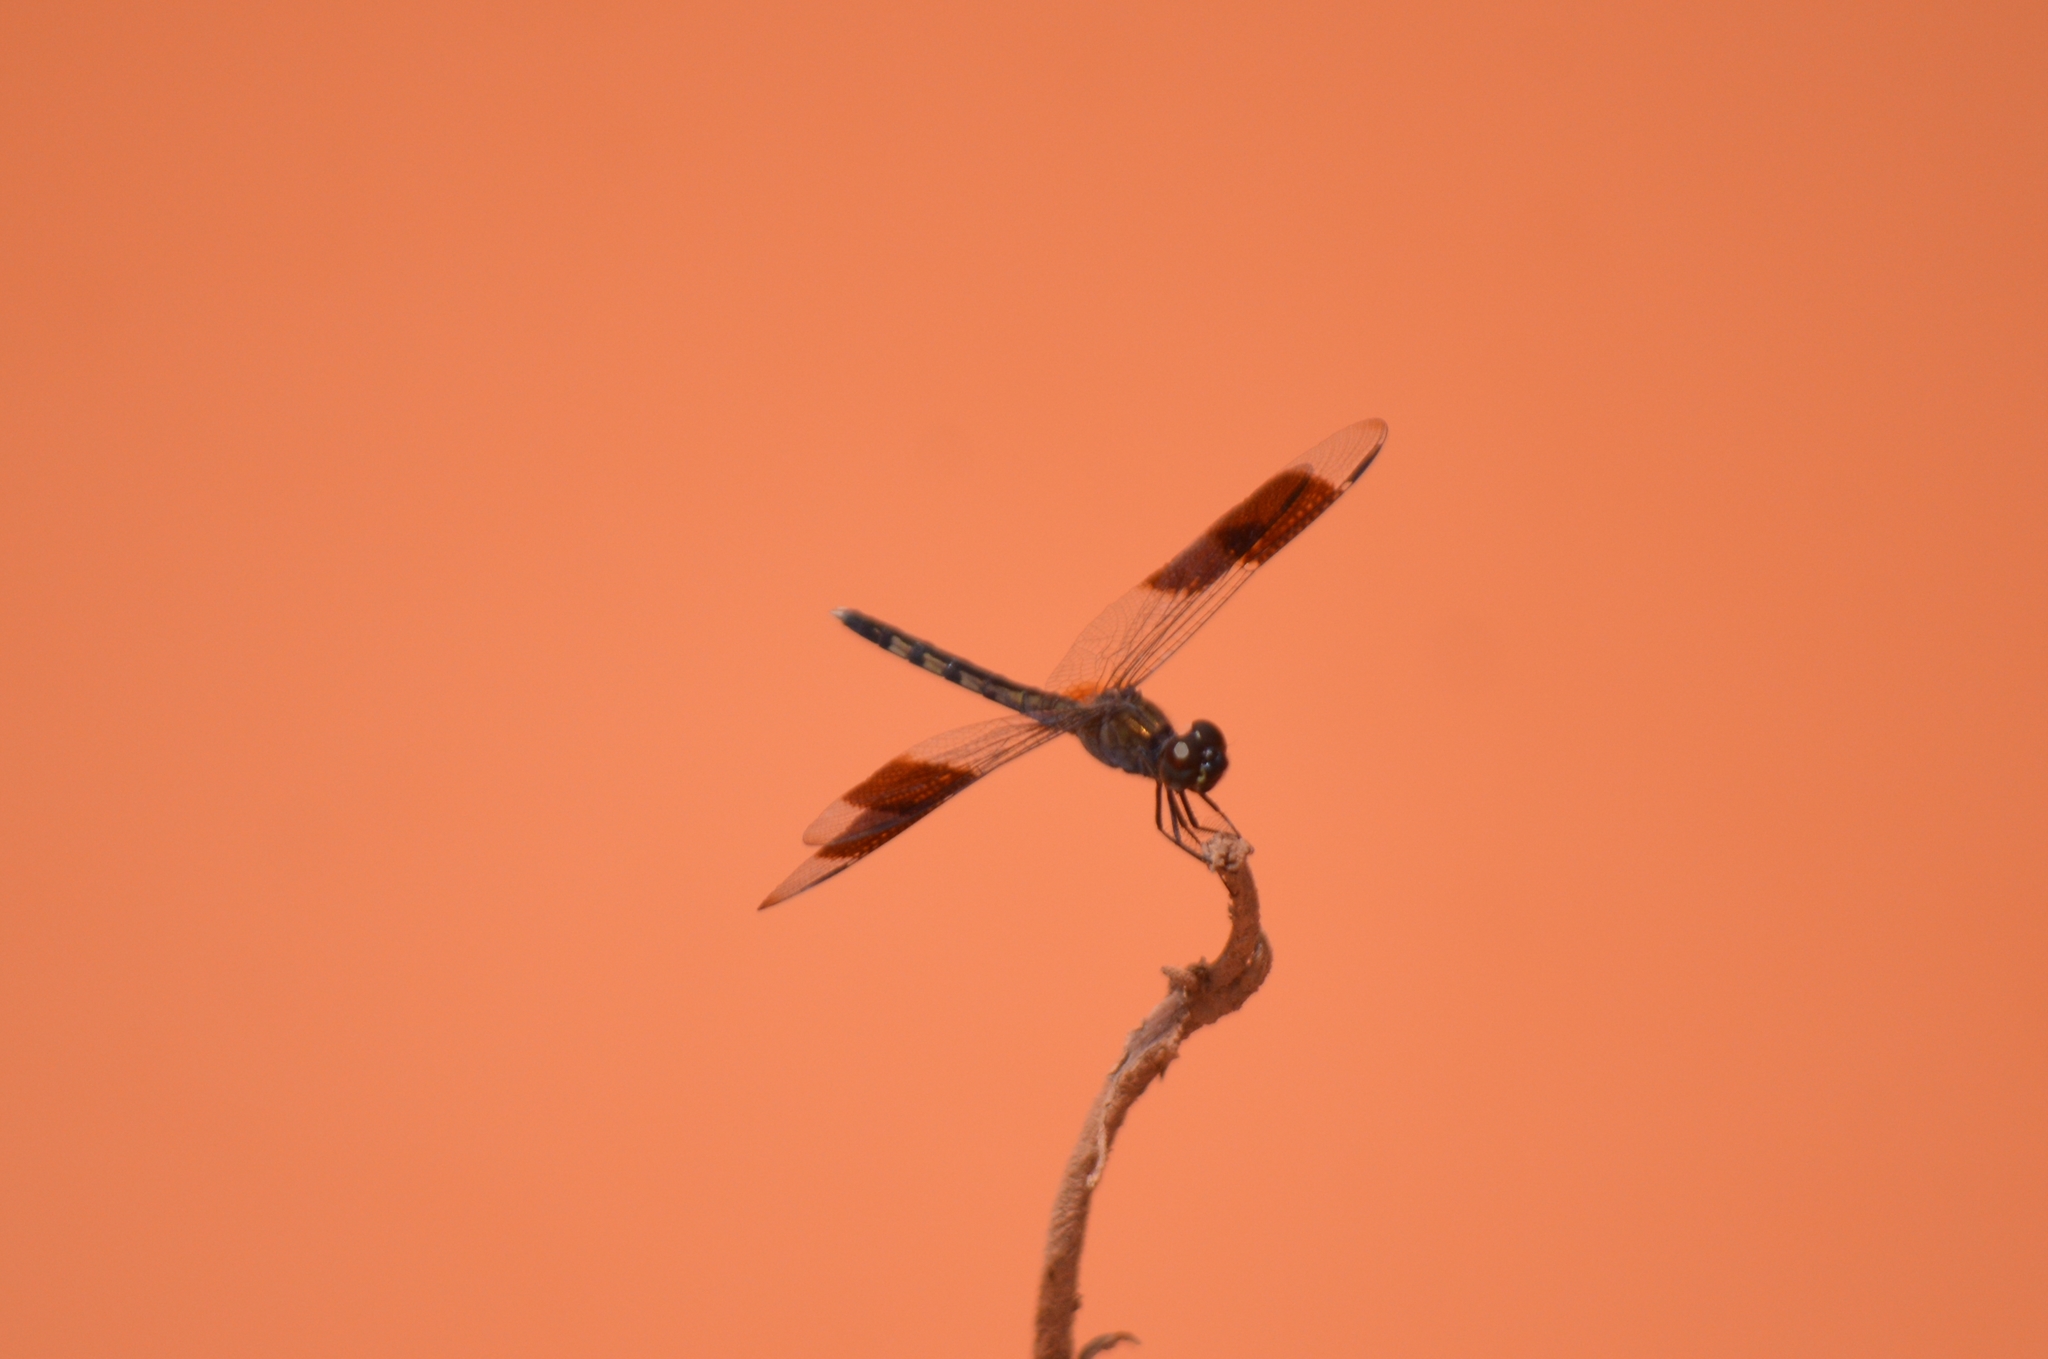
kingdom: Animalia
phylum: Arthropoda
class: Insecta
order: Odonata
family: Libellulidae
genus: Erythrodiplax
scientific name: Erythrodiplax umbrata
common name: Band-winged dragonlet
